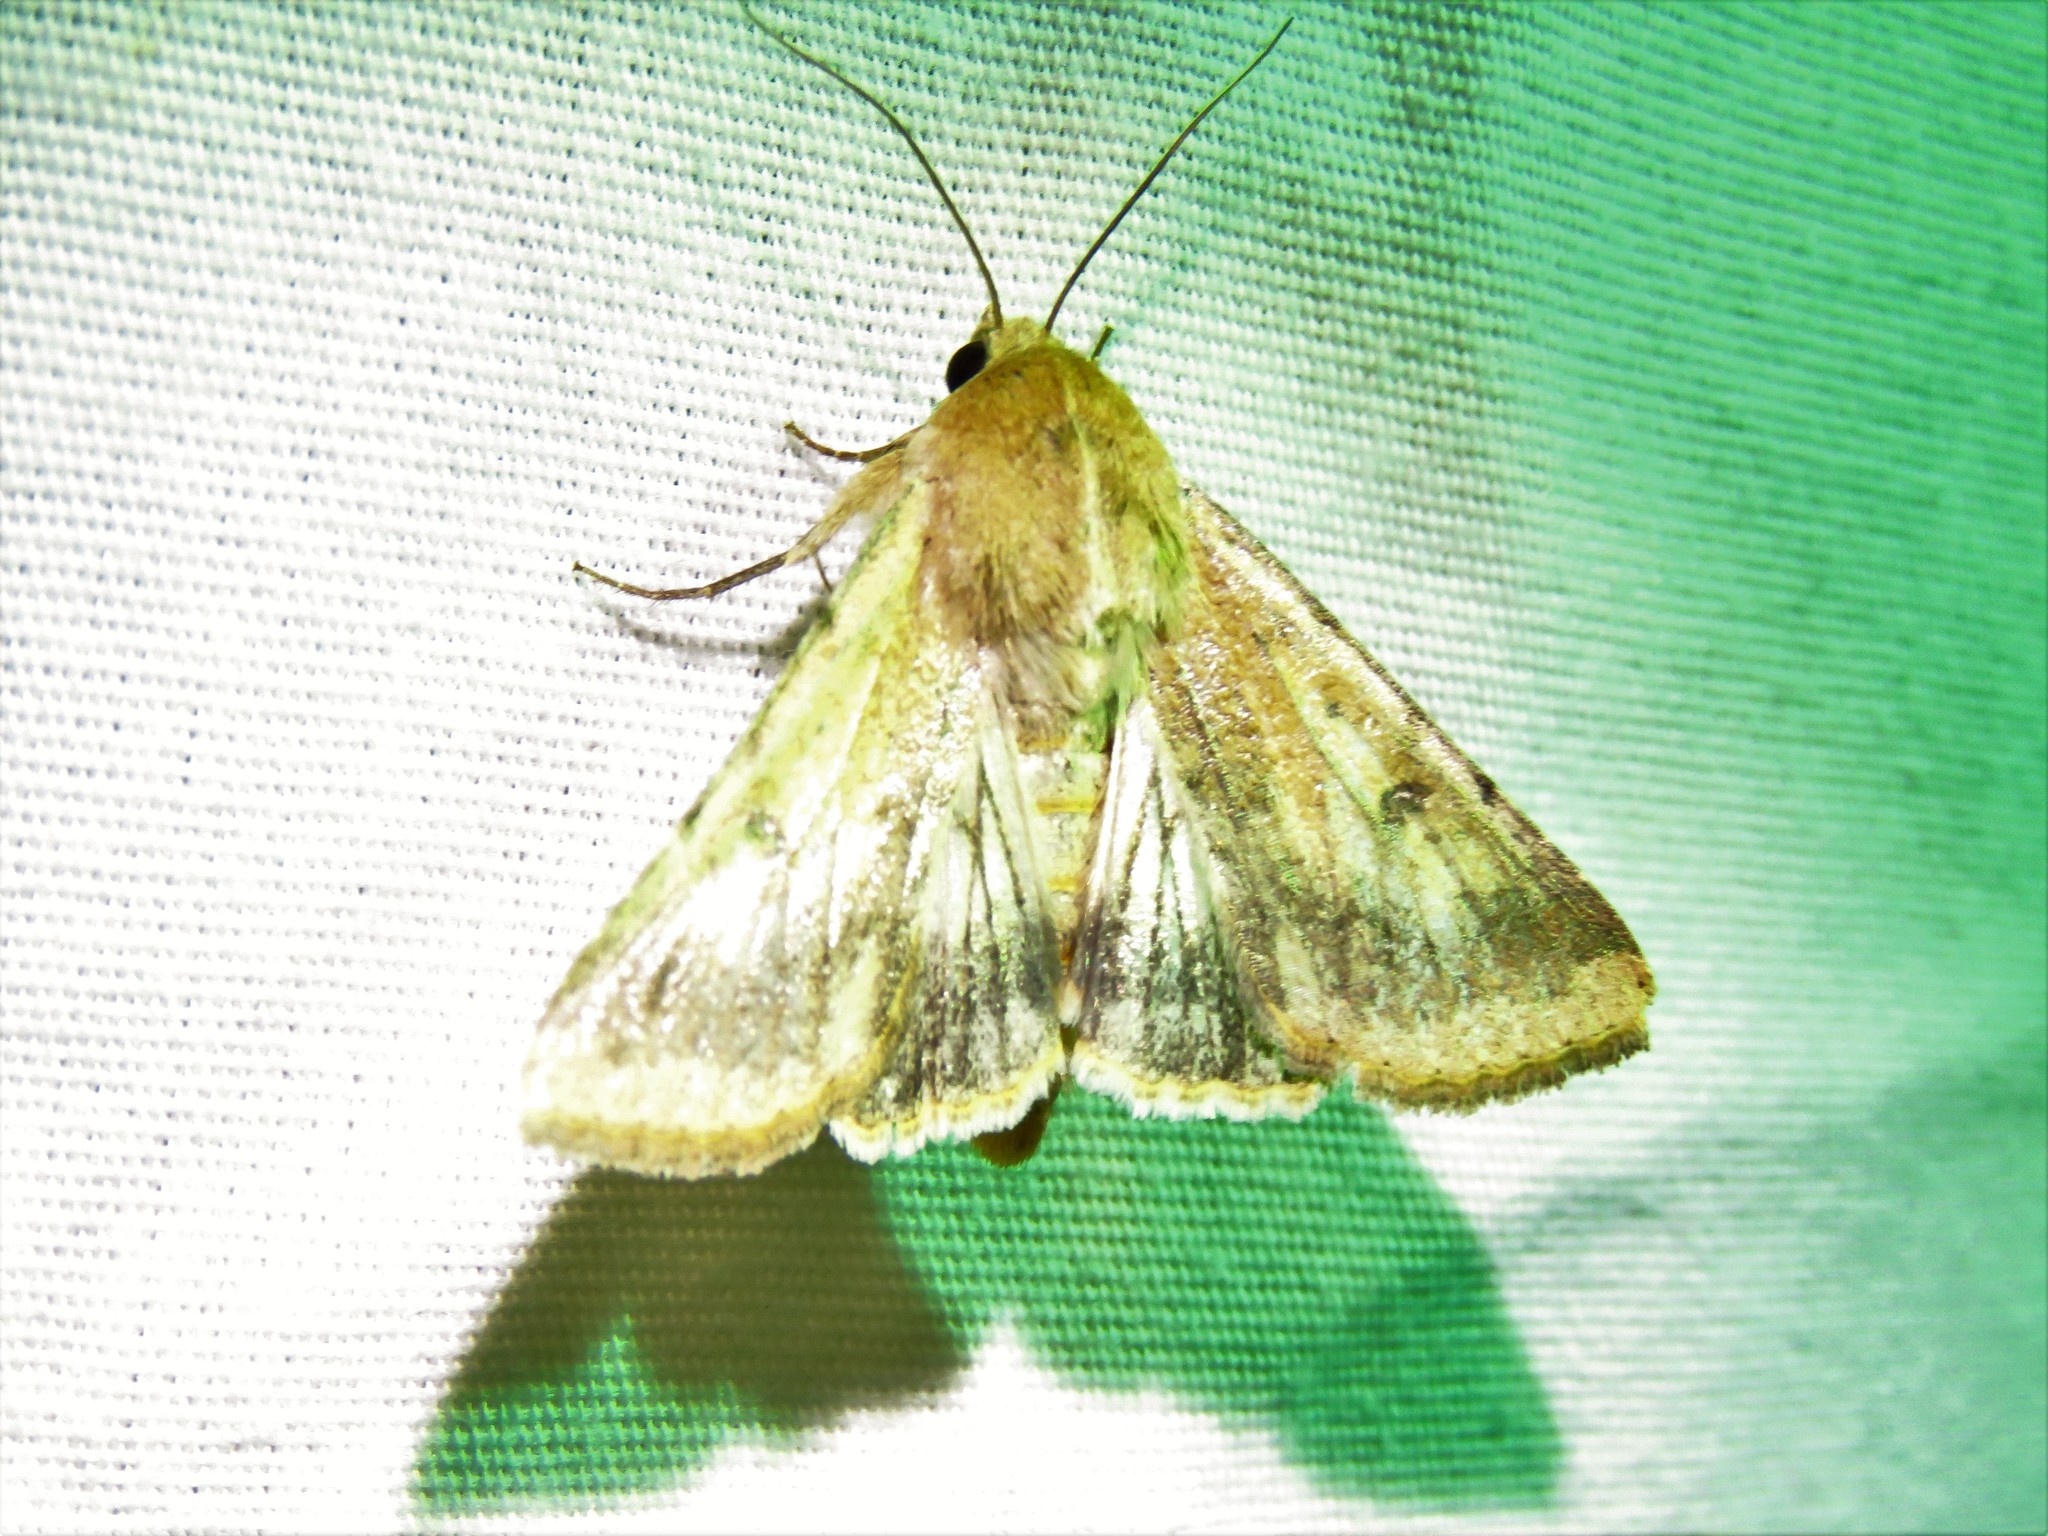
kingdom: Animalia
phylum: Arthropoda
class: Insecta
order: Lepidoptera
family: Noctuidae
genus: Helicoverpa
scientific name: Helicoverpa zea
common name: Bollworm
